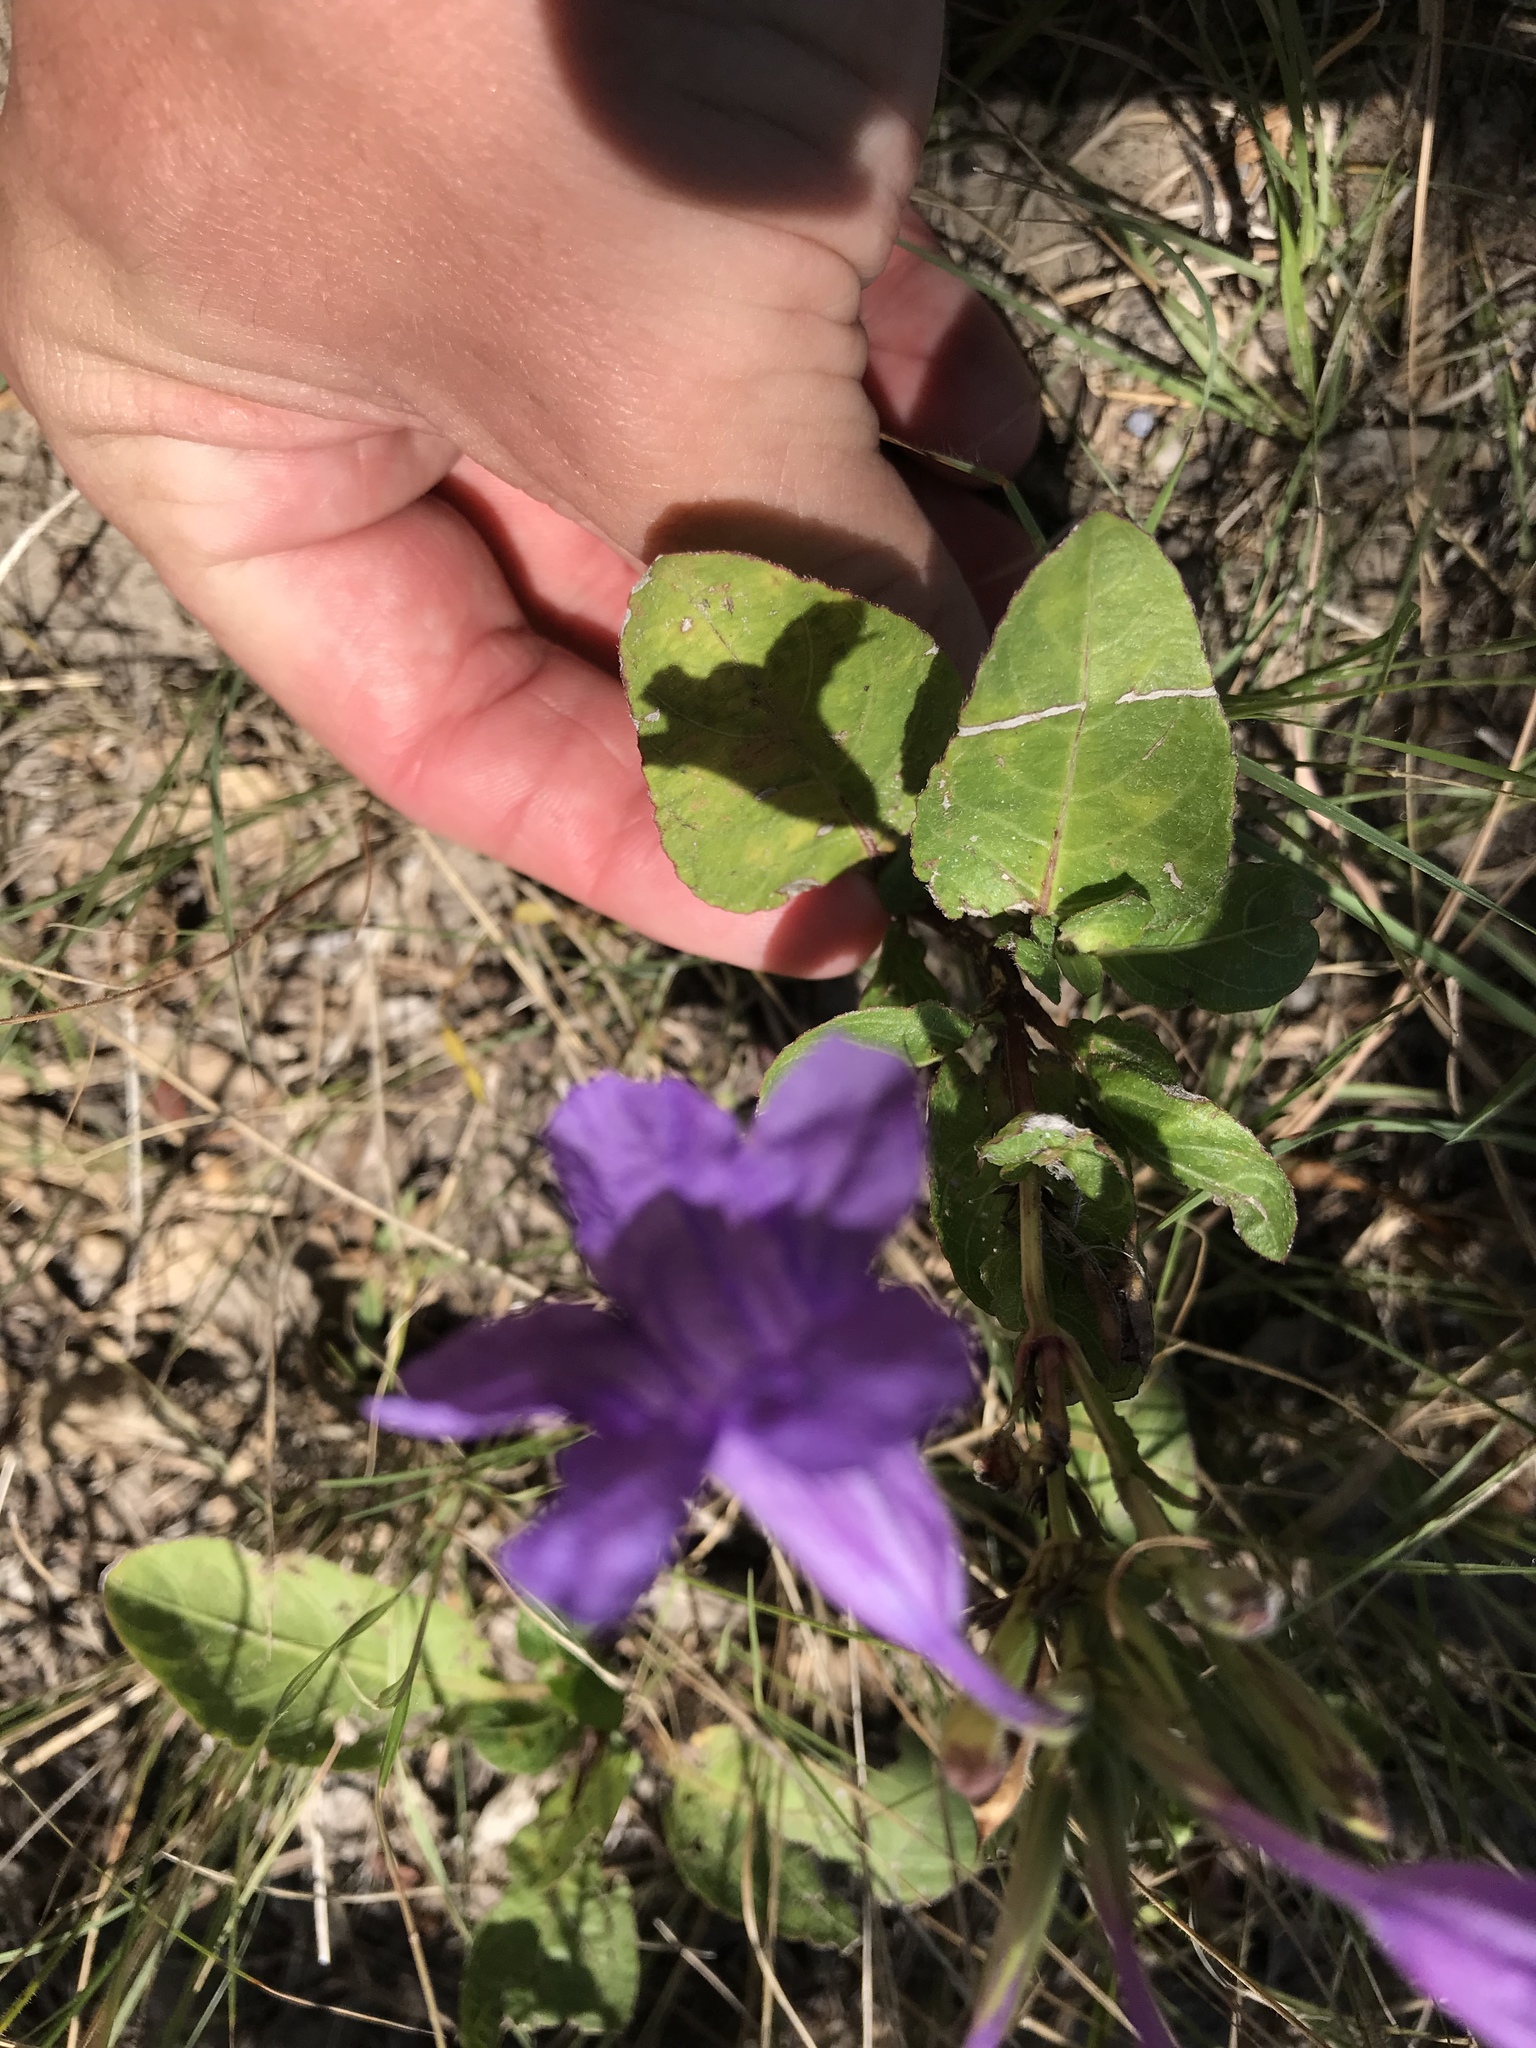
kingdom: Plantae
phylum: Tracheophyta
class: Magnoliopsida
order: Lamiales
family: Acanthaceae
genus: Ruellia
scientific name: Ruellia ciliatiflora
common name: Hairyflower wild petunia
